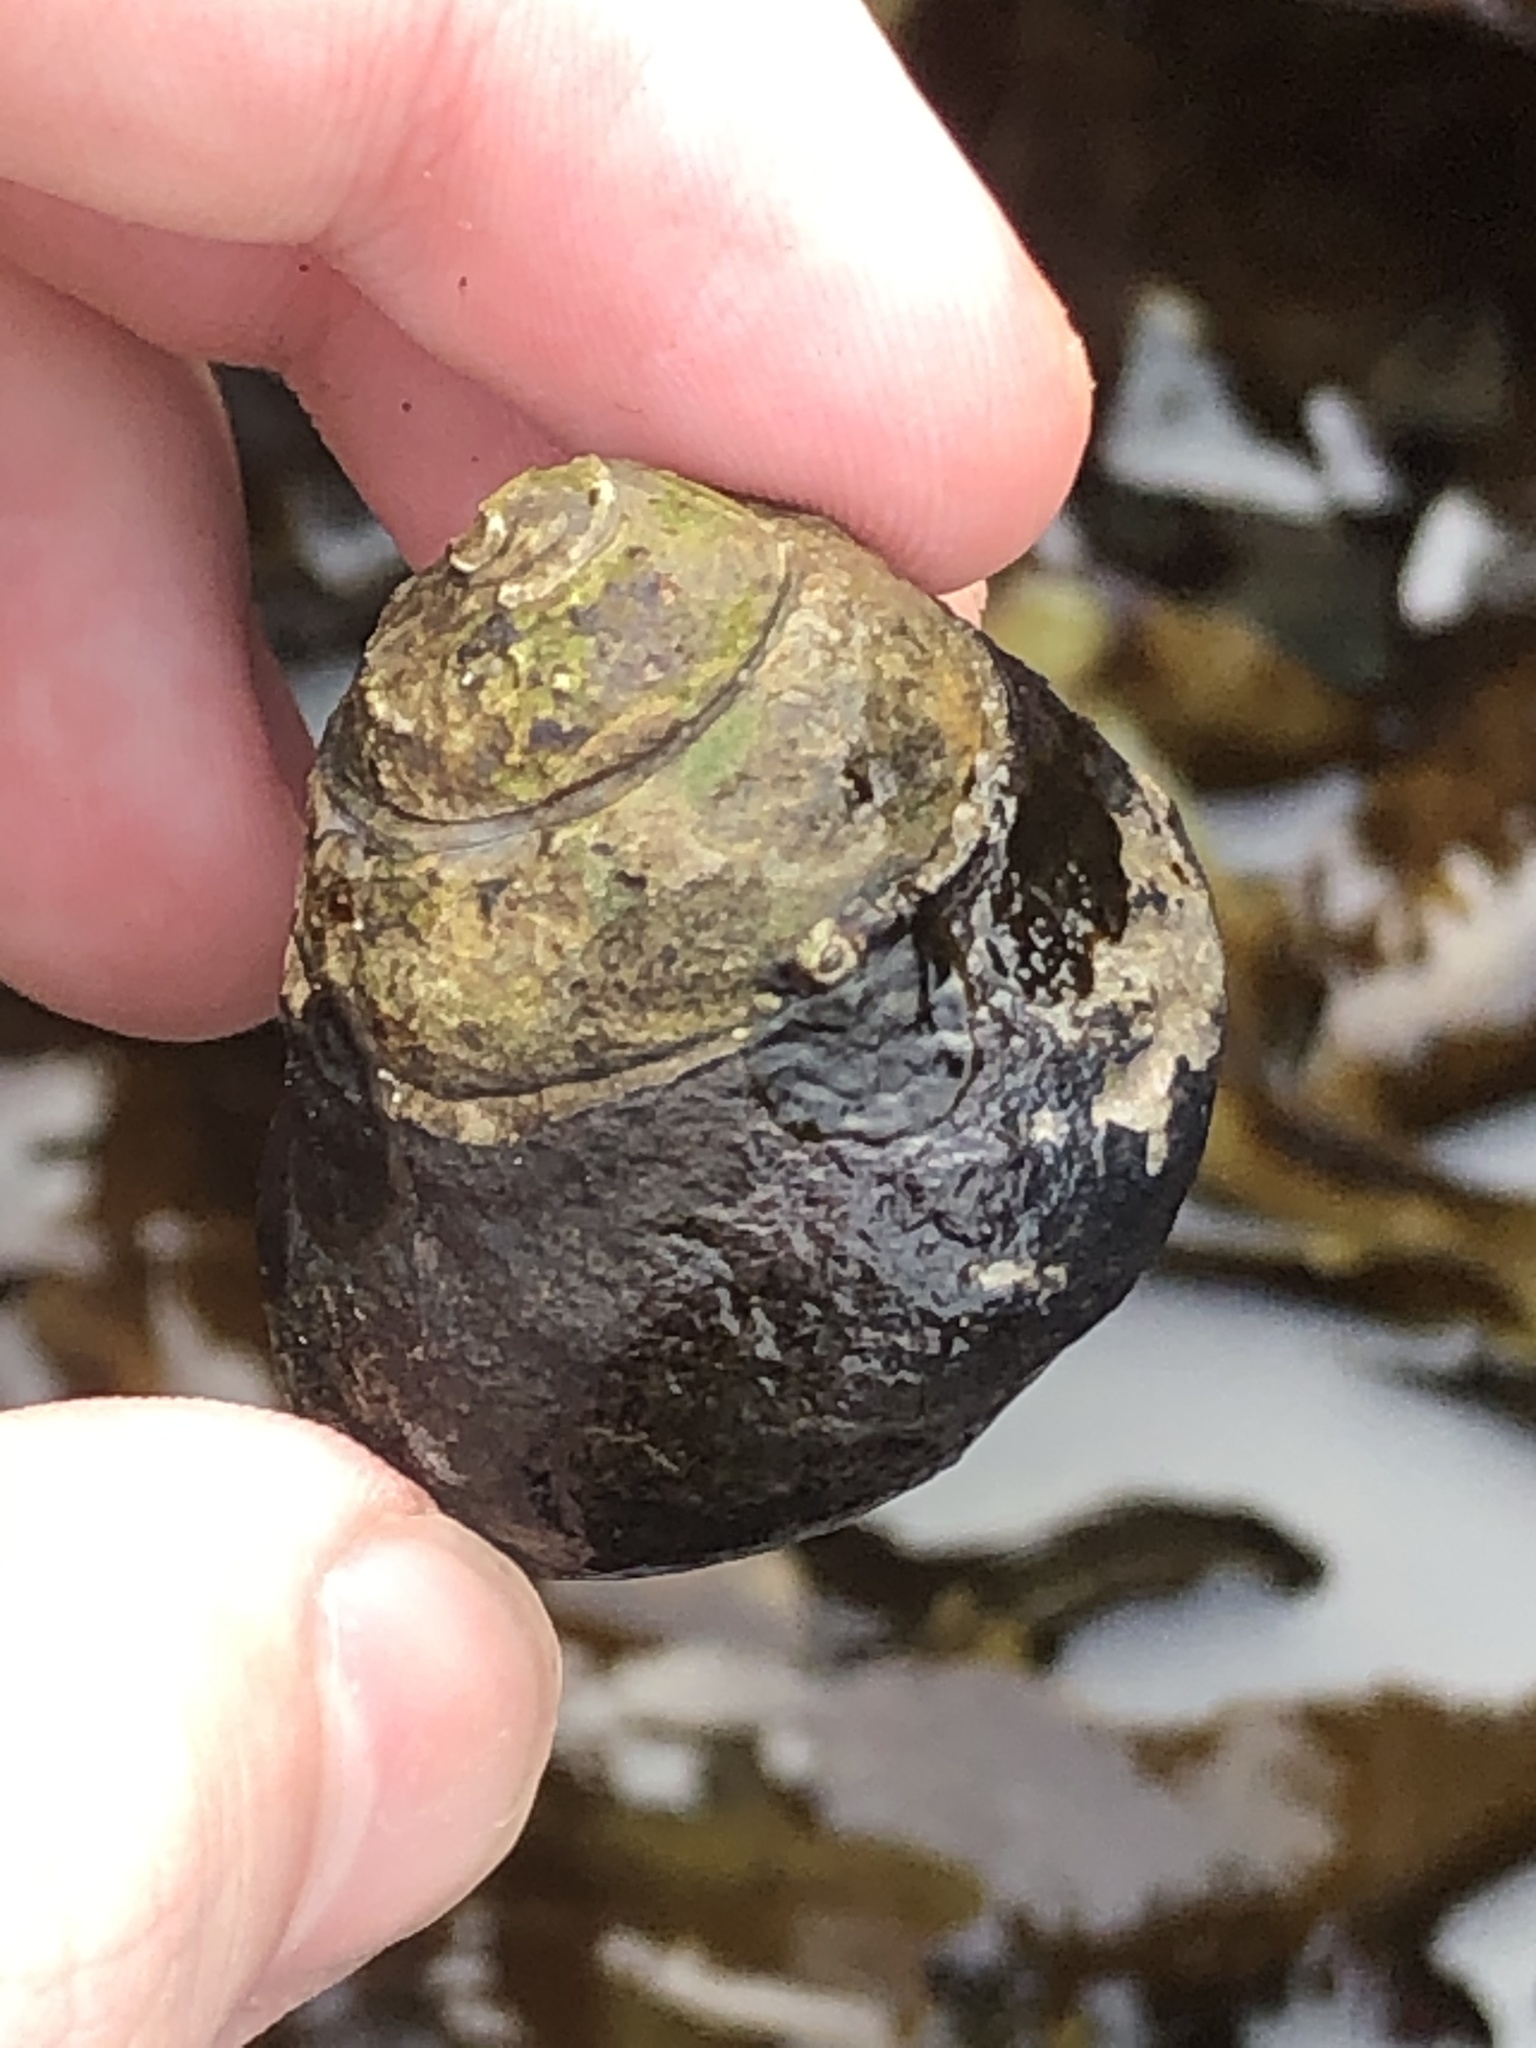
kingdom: Animalia
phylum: Mollusca
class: Gastropoda
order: Trochida
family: Tegulidae
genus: Tegula
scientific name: Tegula funebralis
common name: Black tegula
